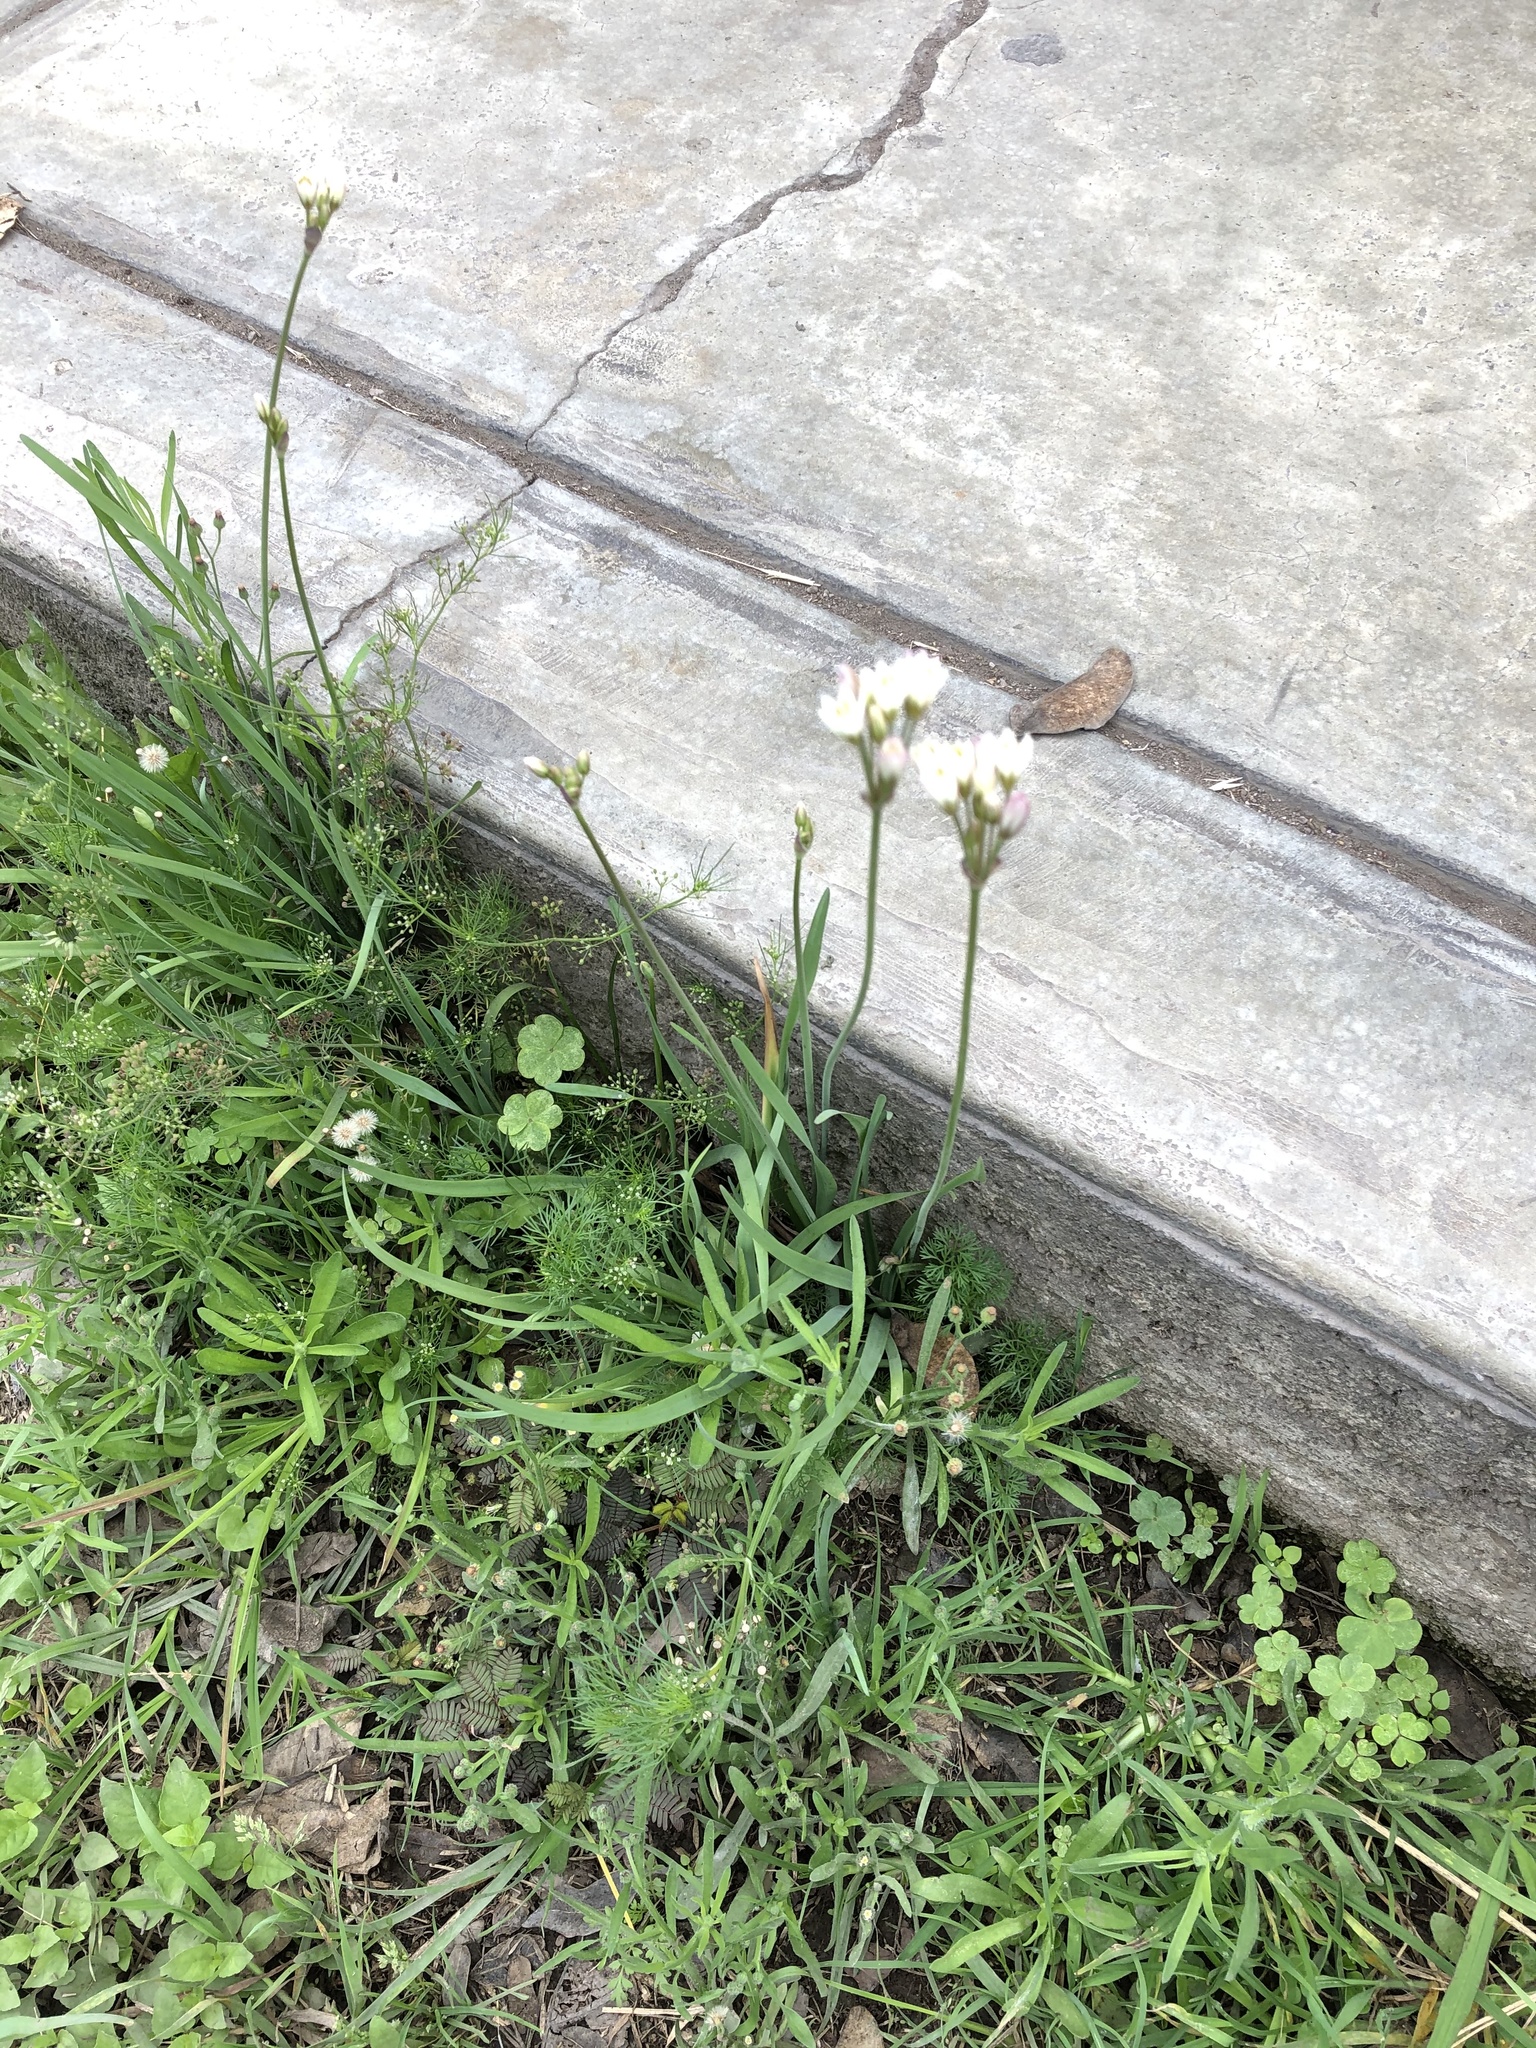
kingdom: Plantae
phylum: Tracheophyta
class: Liliopsida
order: Asparagales
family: Amaryllidaceae
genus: Nothoscordum
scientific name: Nothoscordum gracile
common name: Slender false garlic
